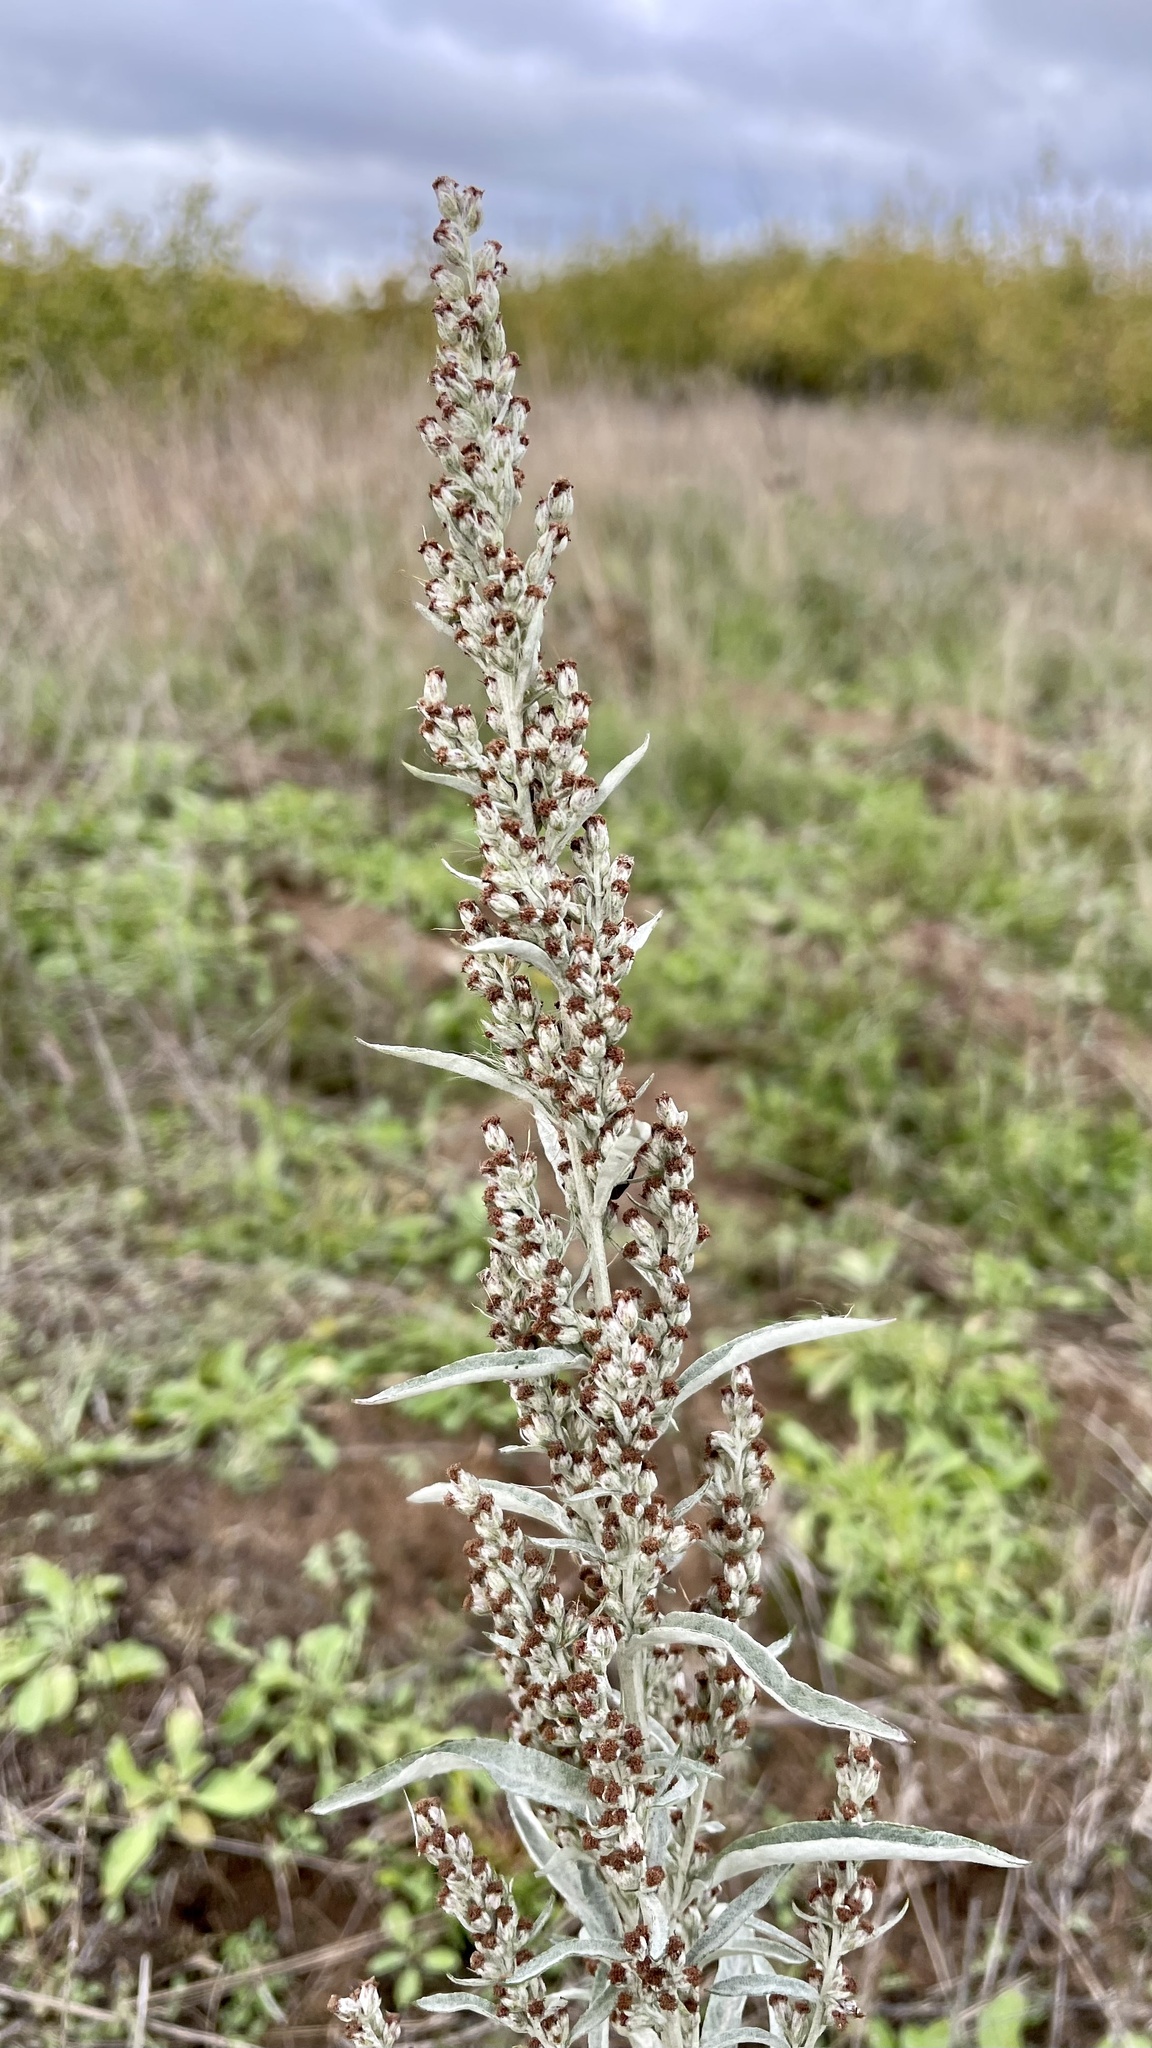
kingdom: Plantae
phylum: Tracheophyta
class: Magnoliopsida
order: Asterales
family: Asteraceae
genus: Artemisia
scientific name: Artemisia ludoviciana
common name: Western mugwort
